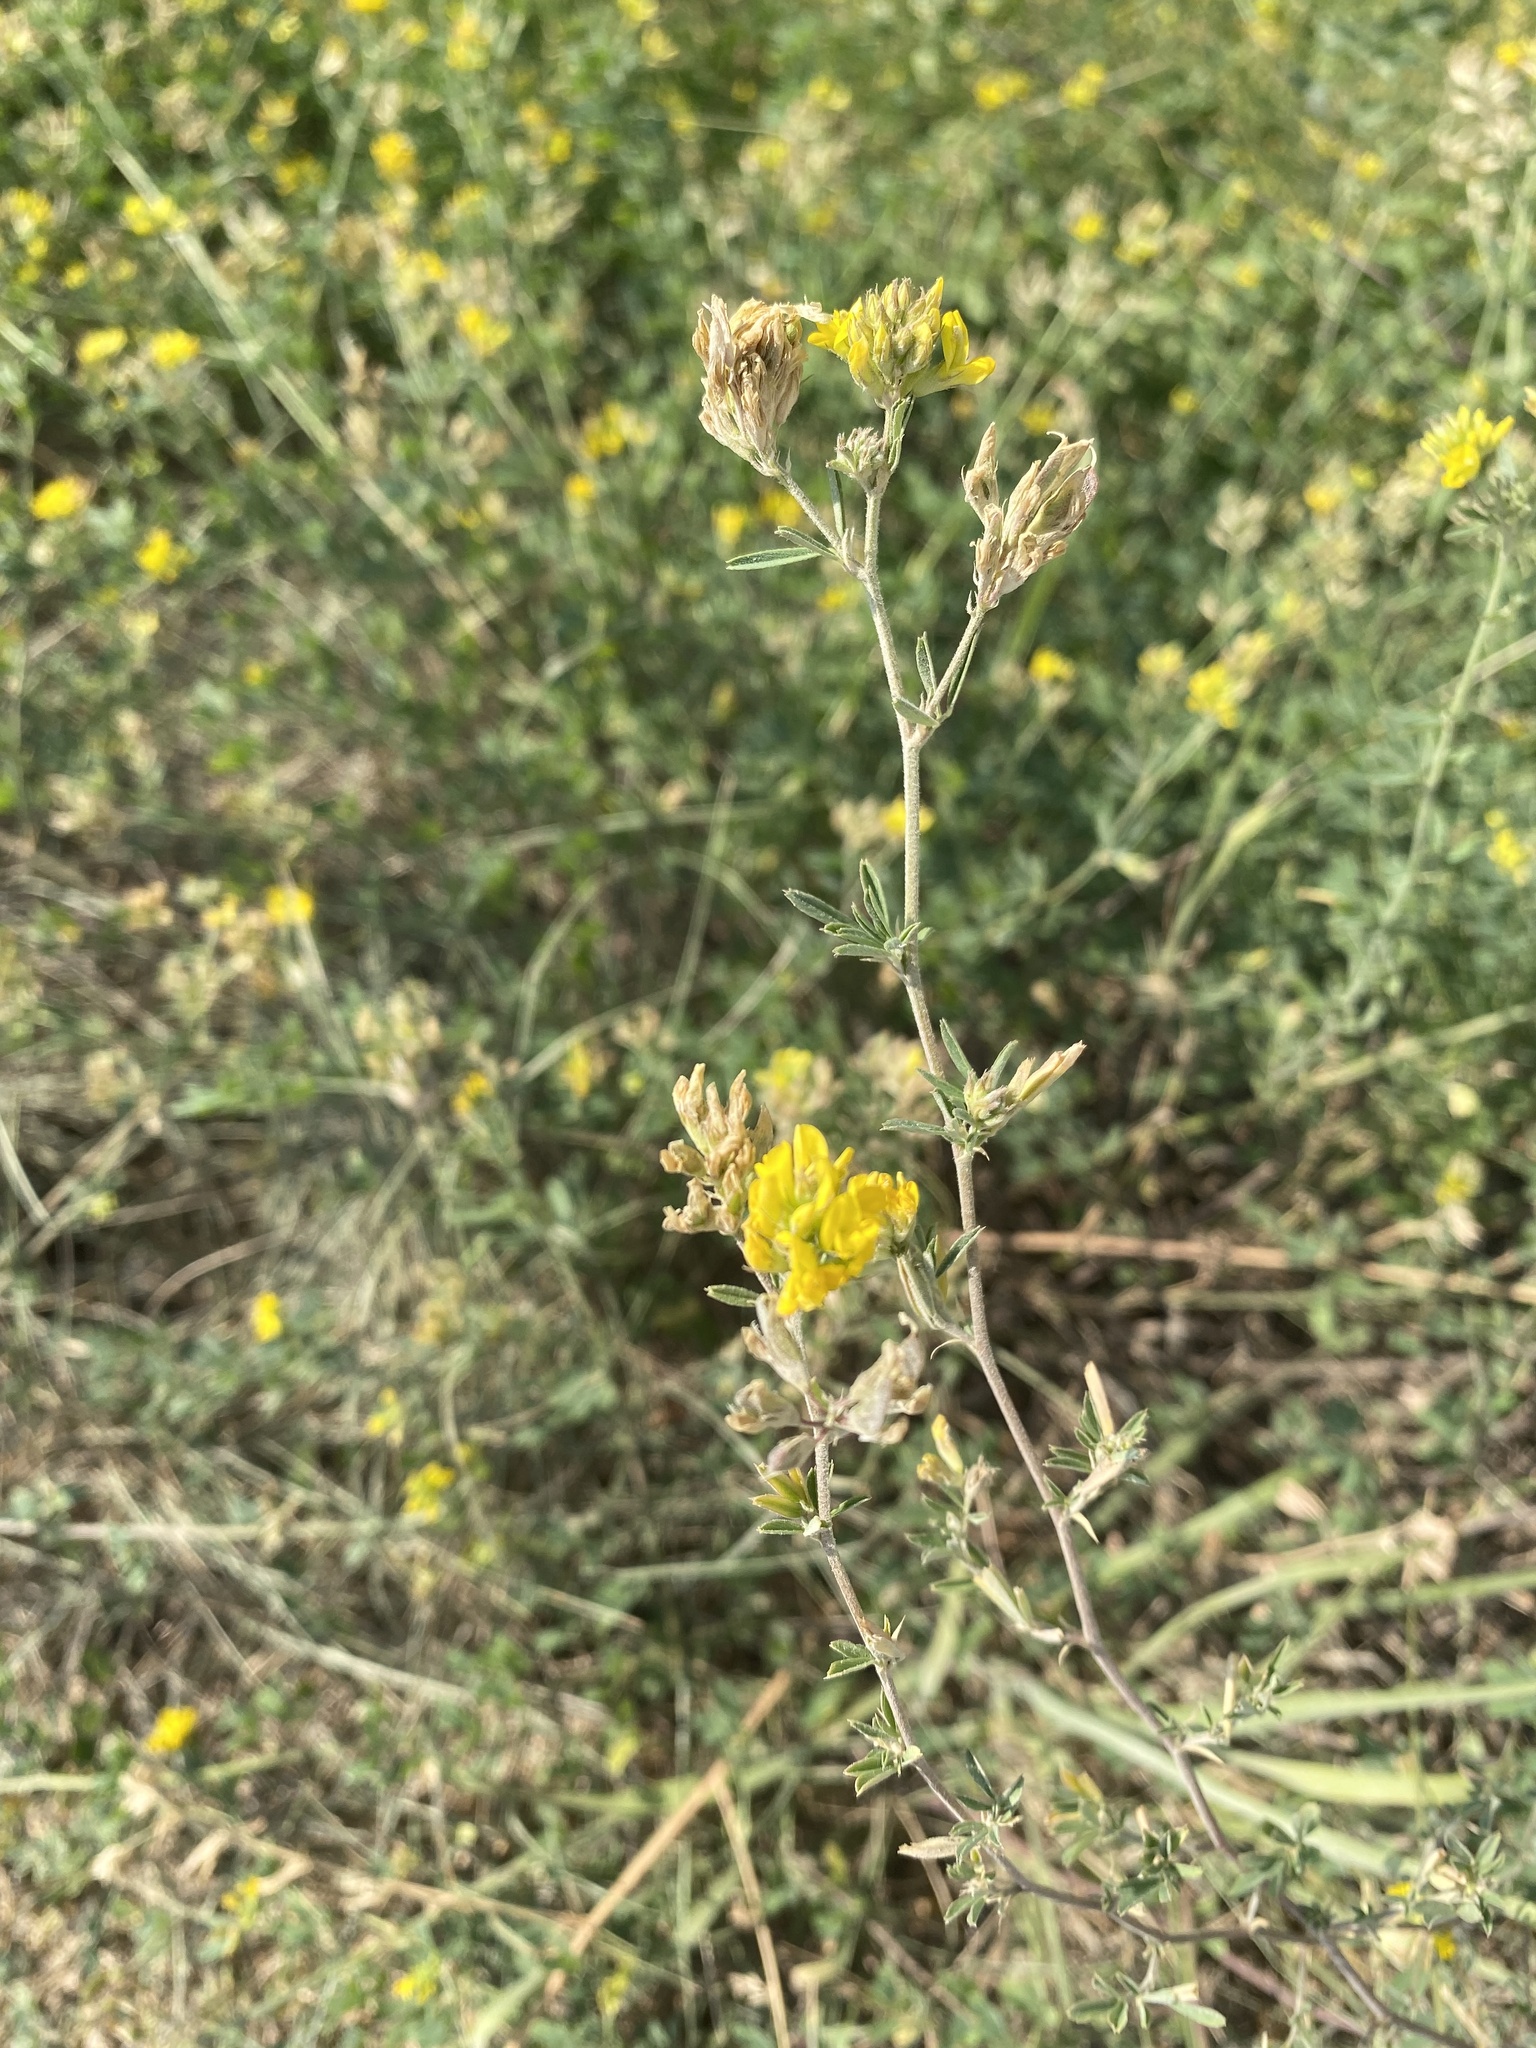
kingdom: Plantae
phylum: Tracheophyta
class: Magnoliopsida
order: Fabales
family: Fabaceae
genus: Medicago
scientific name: Medicago falcata
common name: Sickle medick
